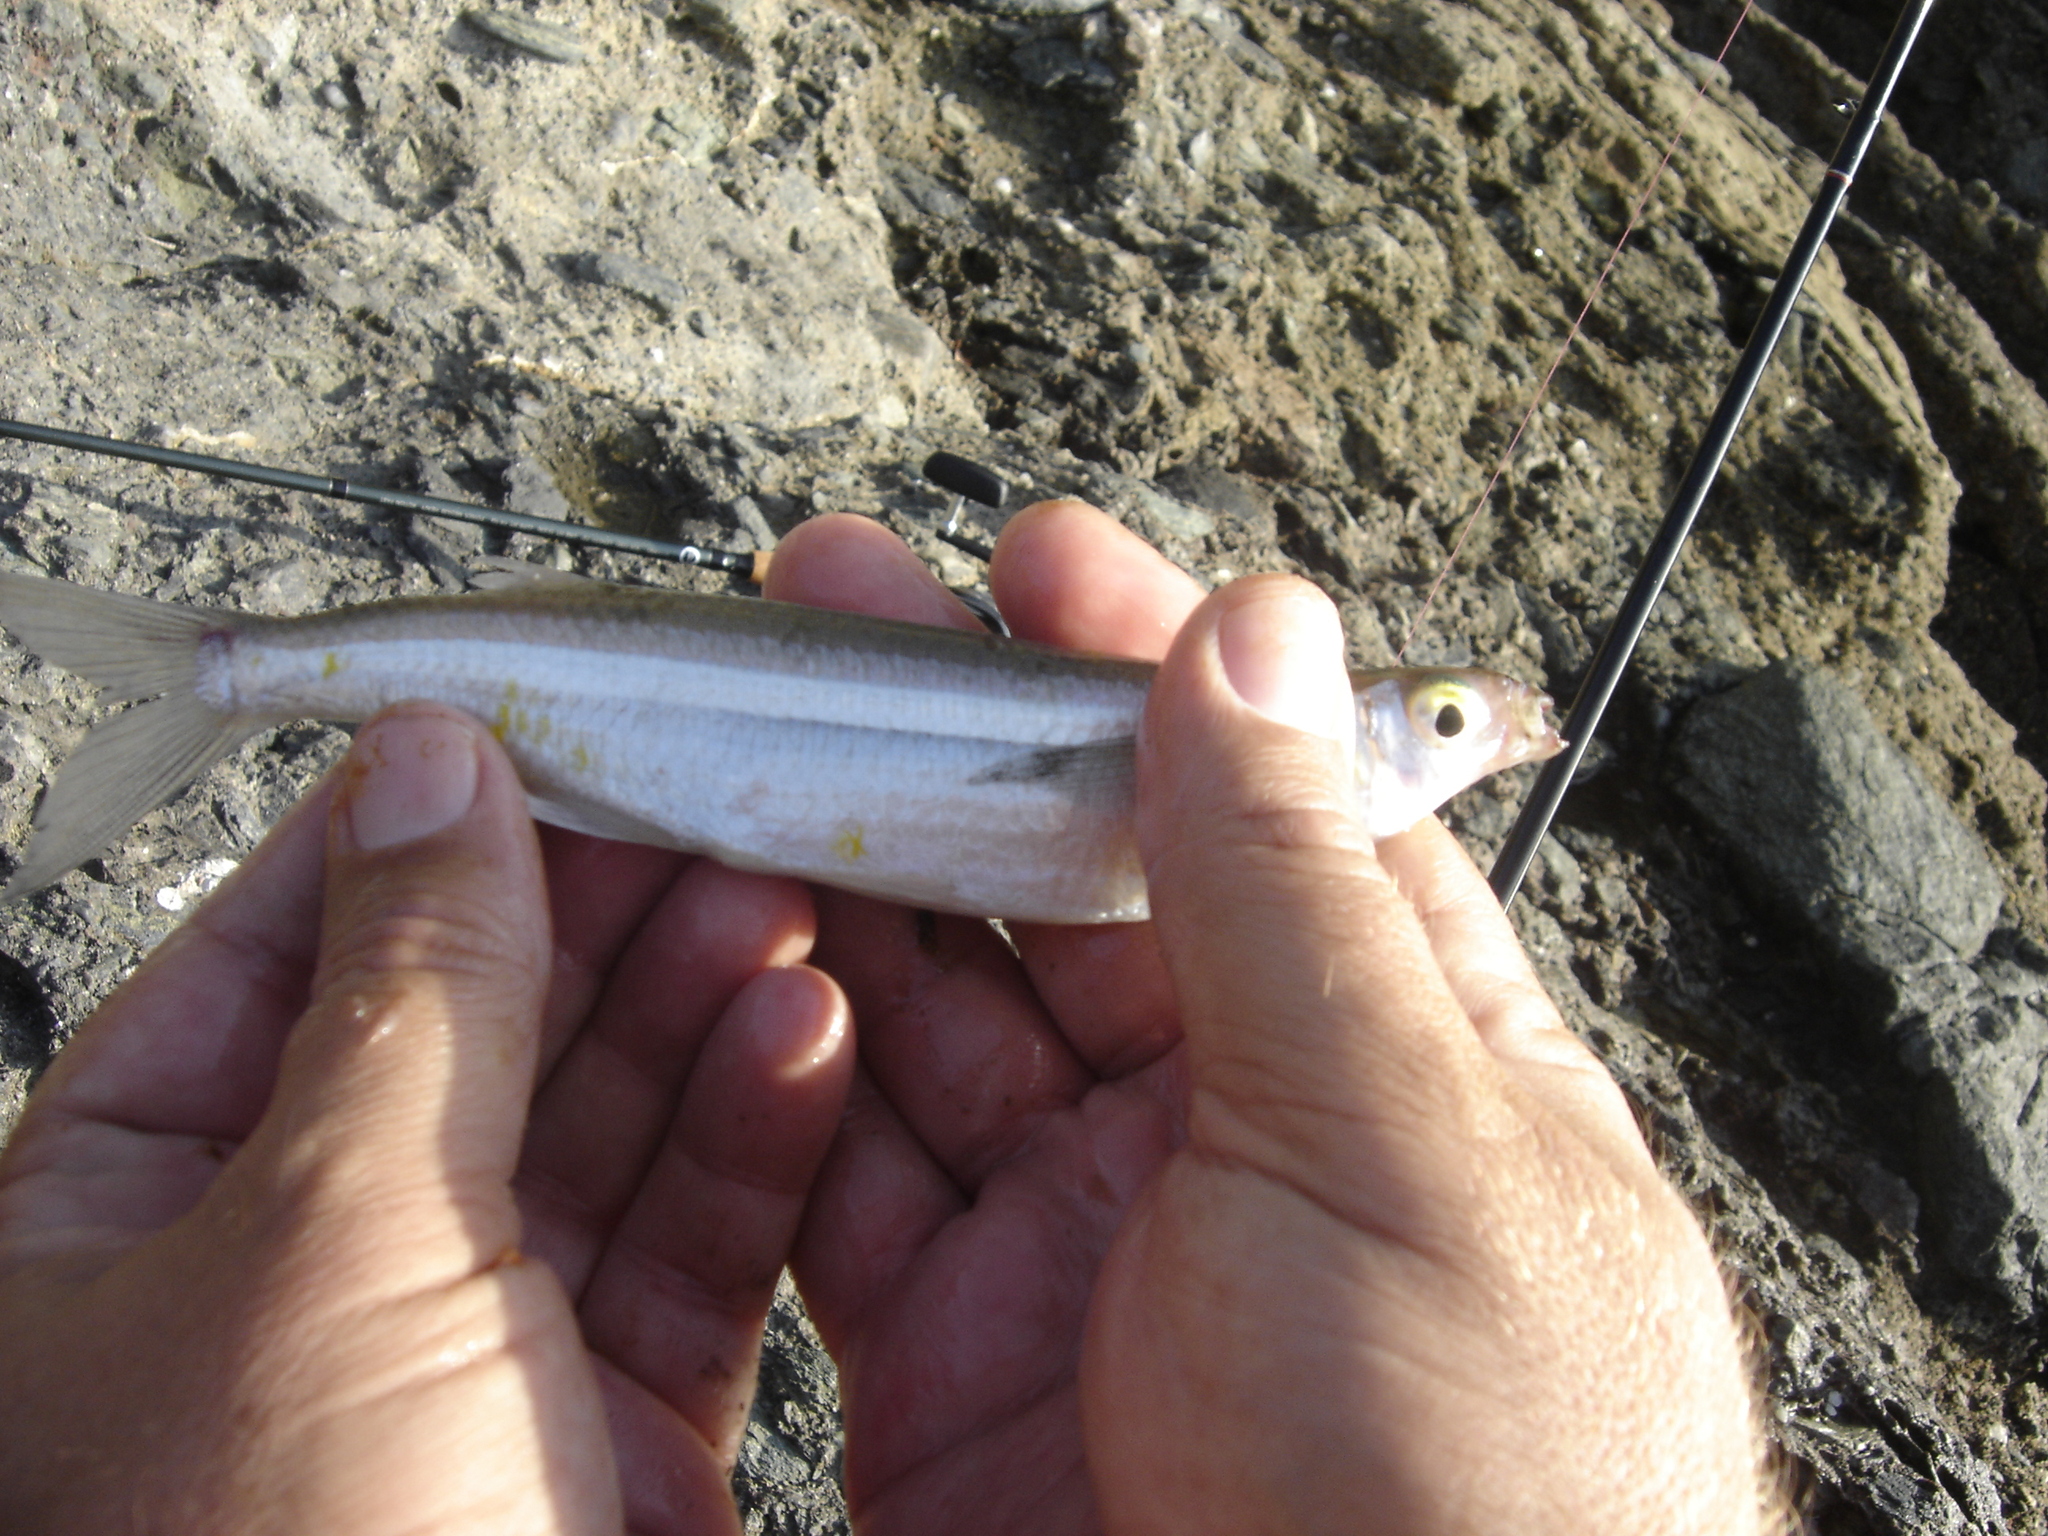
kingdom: Animalia
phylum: Chordata
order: Atheriniformes
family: Atherinopsidae
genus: Atherinops
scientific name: Atherinops affinis
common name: Topsmelt
